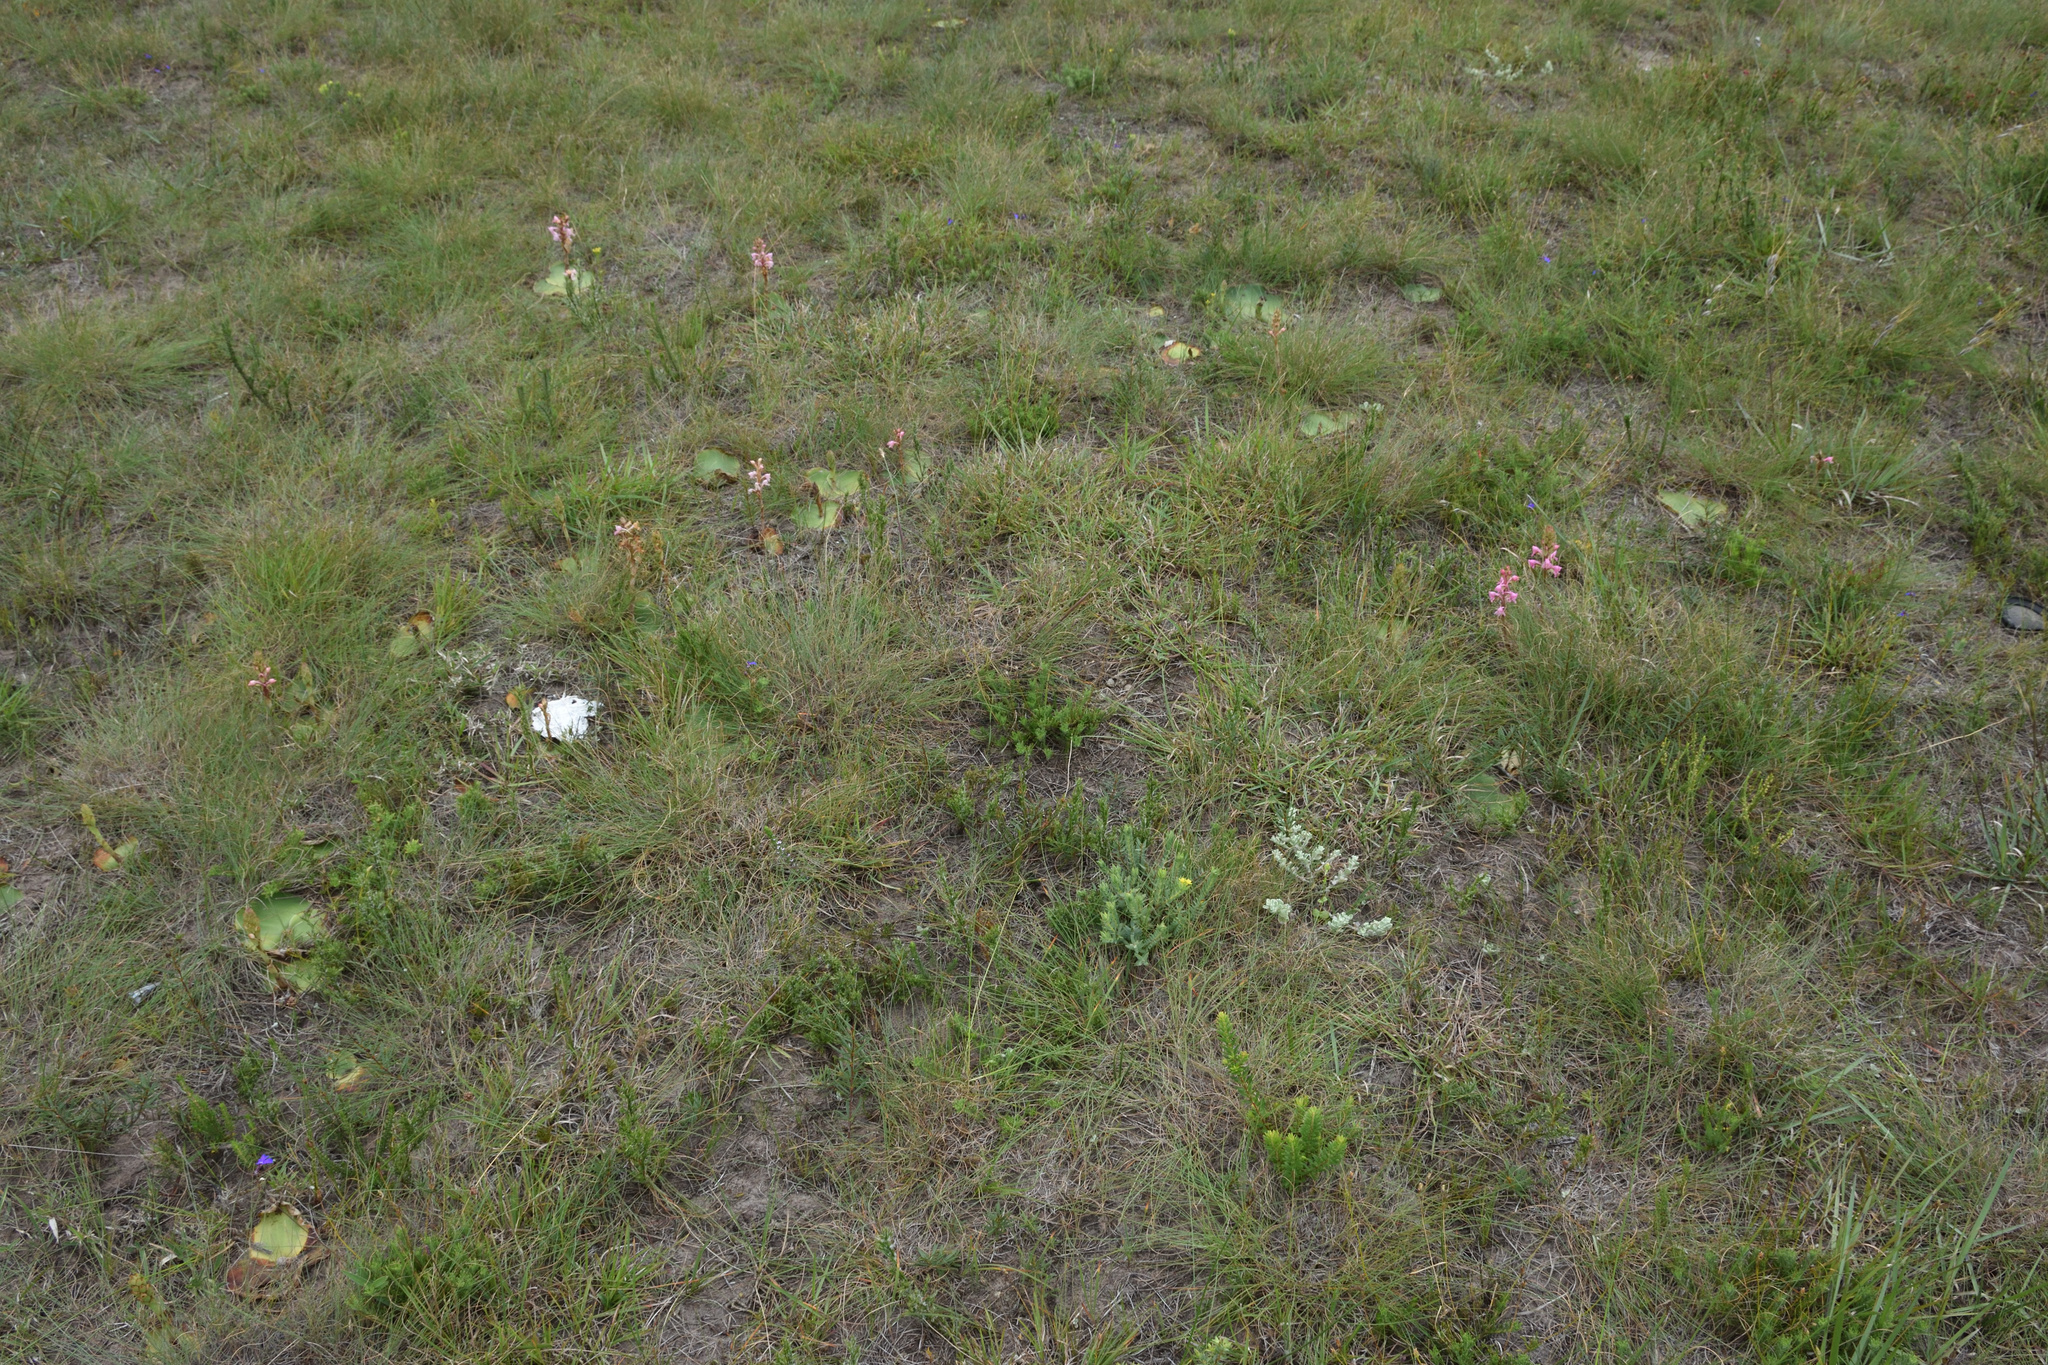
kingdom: Plantae
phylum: Tracheophyta
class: Liliopsida
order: Asparagales
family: Orchidaceae
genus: Satyrium
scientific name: Satyrium membranaceum
